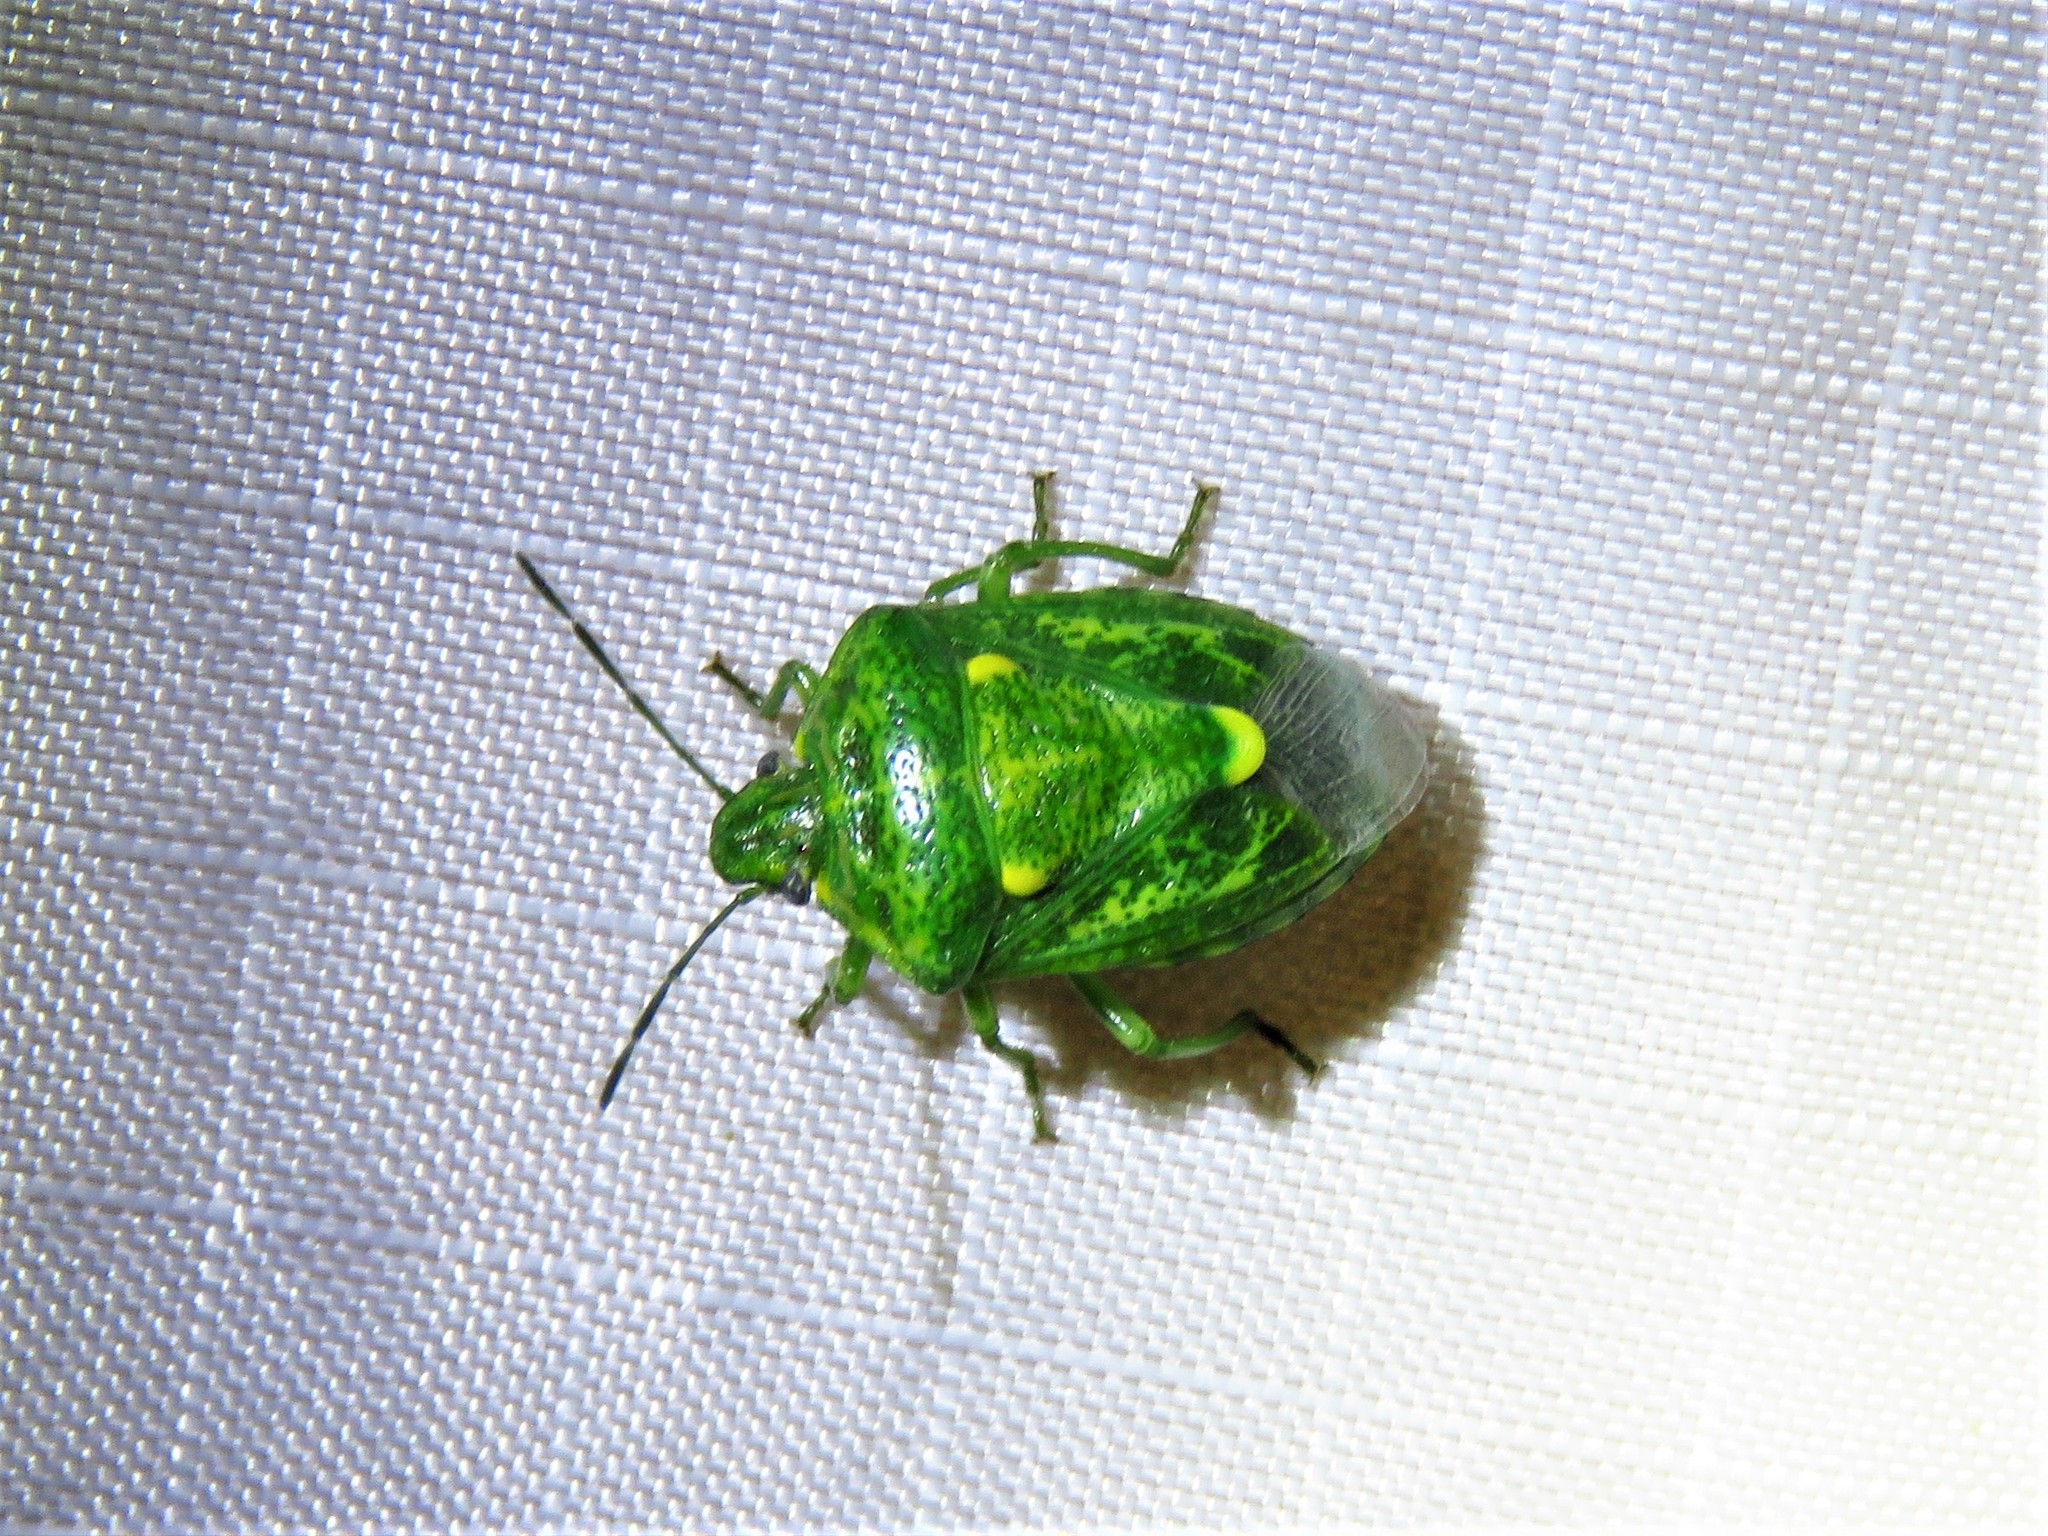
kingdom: Animalia
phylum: Arthropoda
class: Insecta
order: Hemiptera
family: Pentatomidae
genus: Banasa
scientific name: Banasa euchlora
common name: Cedar berry bug
